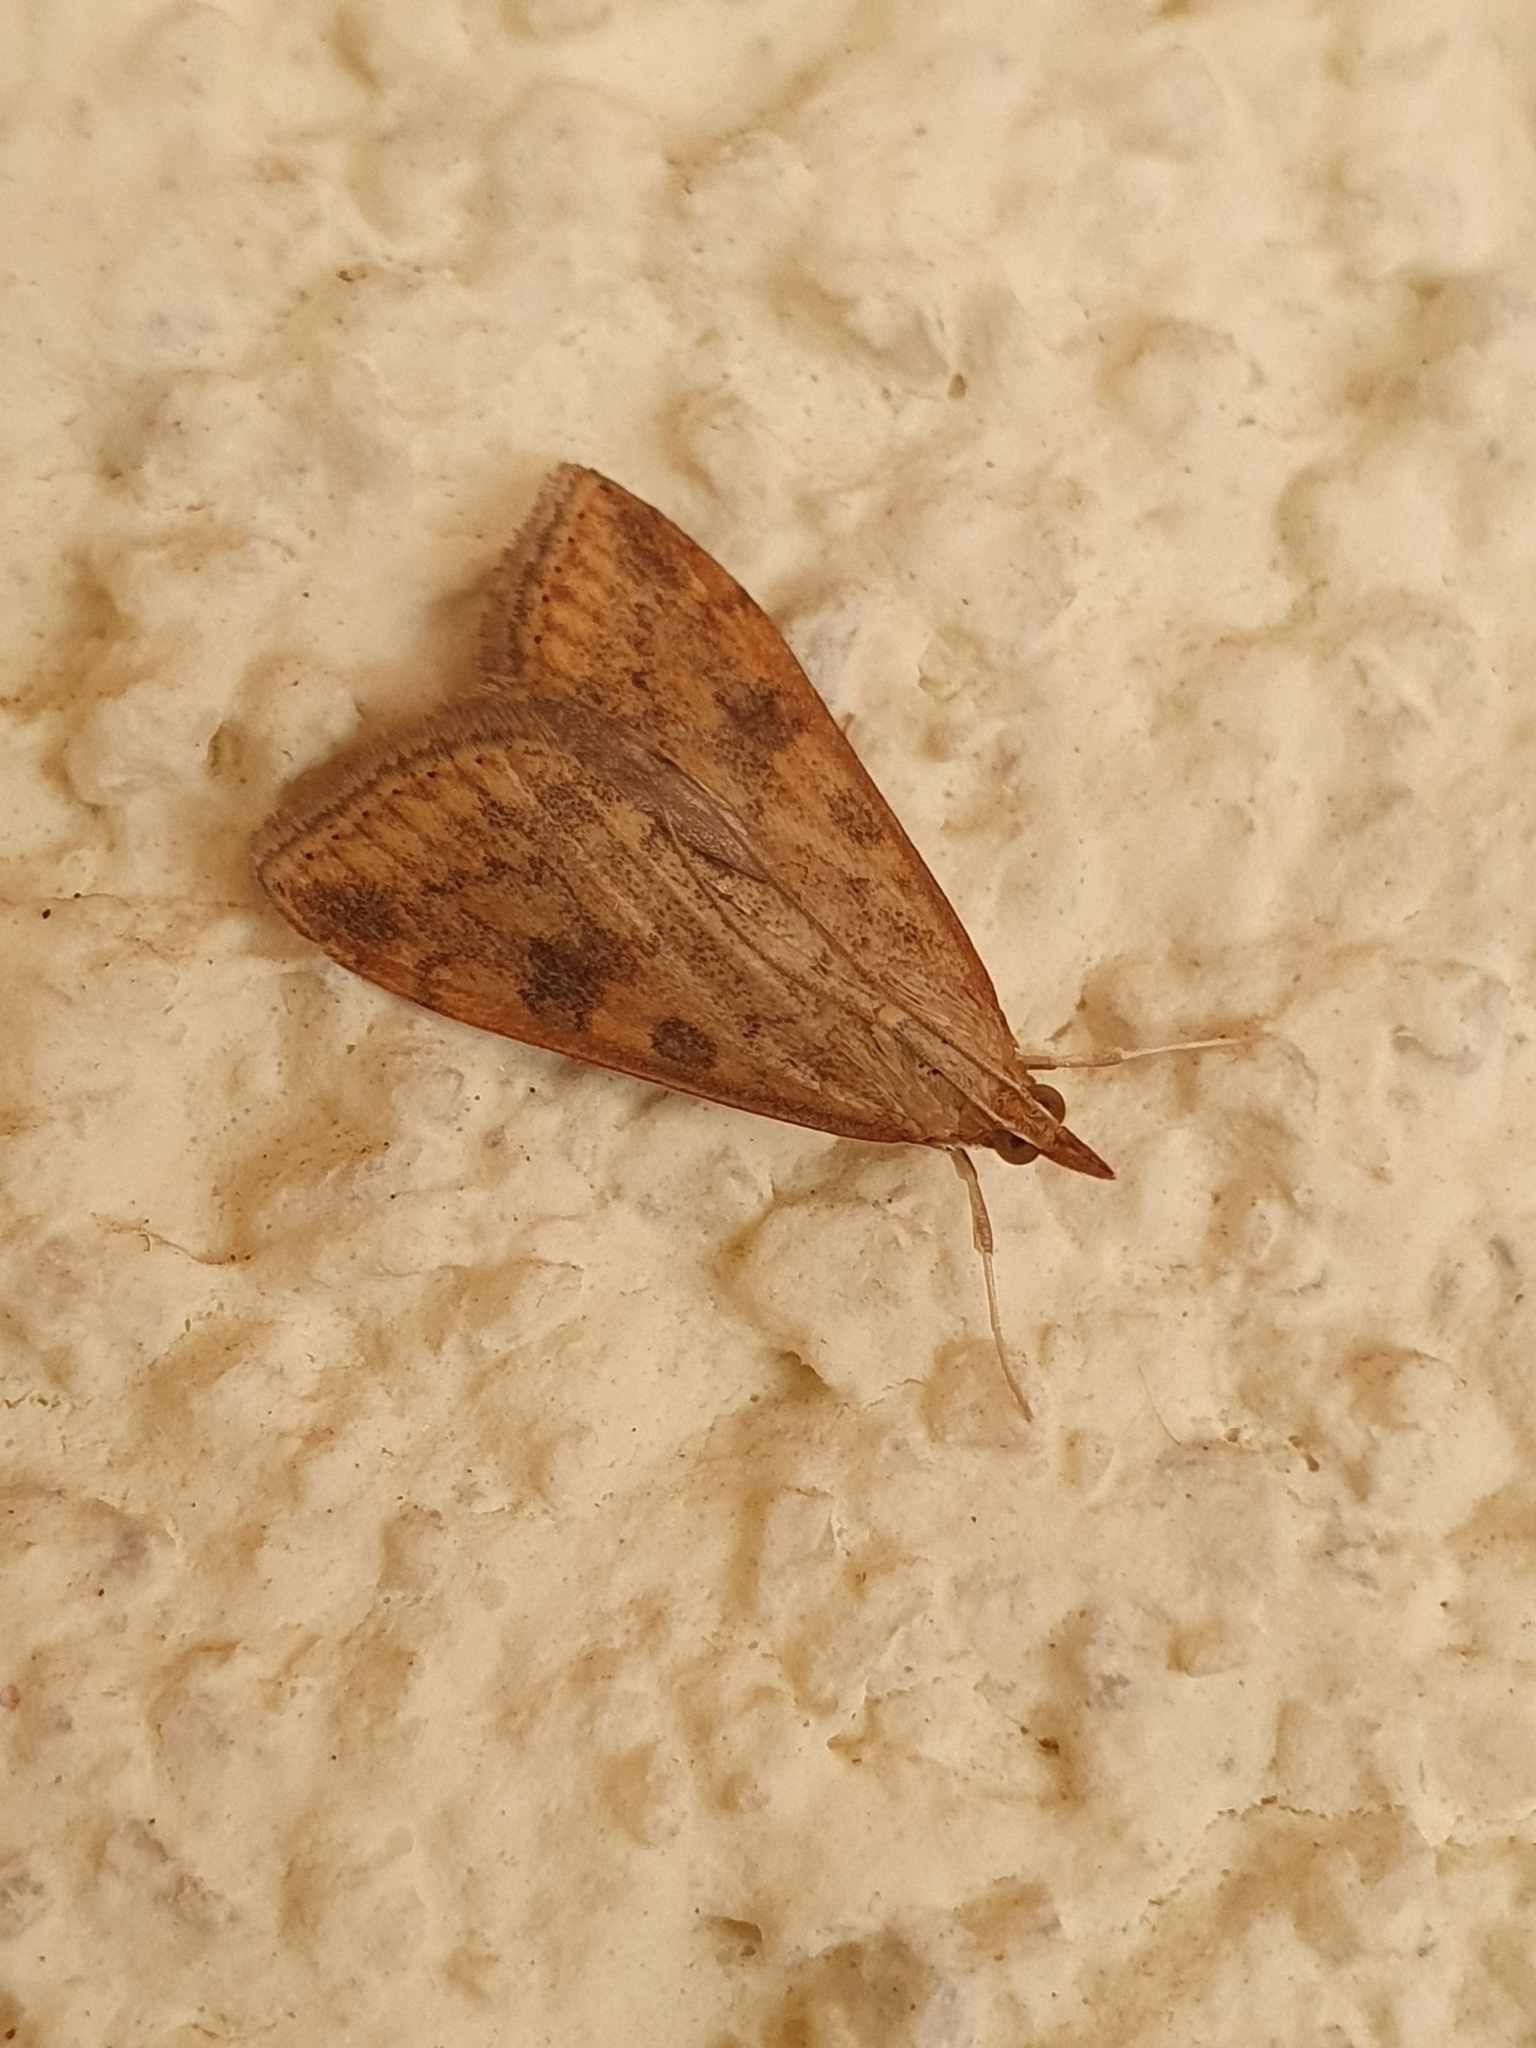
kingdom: Animalia
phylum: Arthropoda
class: Insecta
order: Lepidoptera
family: Crambidae
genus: Udea
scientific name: Udea ferrugalis
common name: Rusty dot
